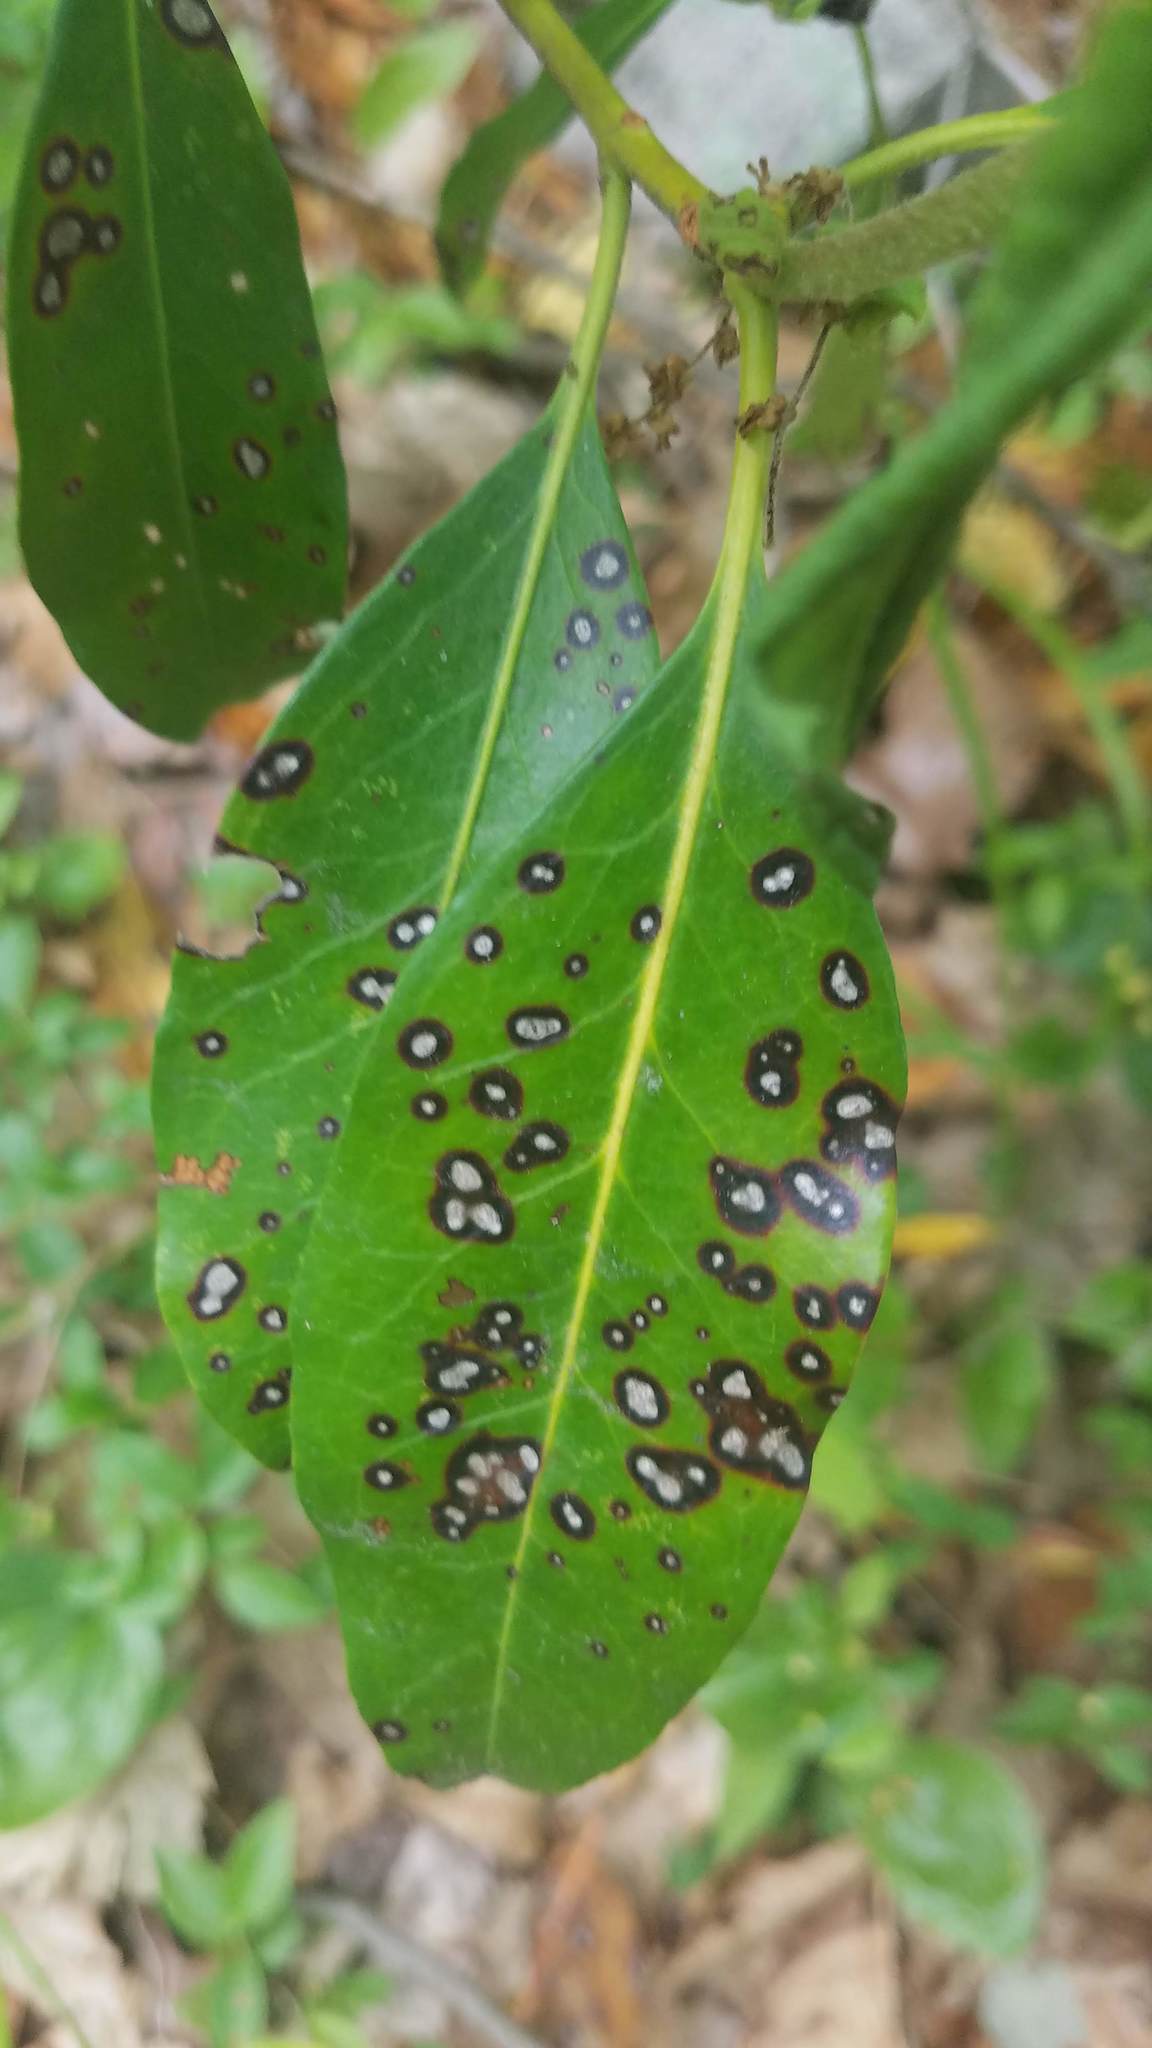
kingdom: Plantae
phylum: Tracheophyta
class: Magnoliopsida
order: Ericales
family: Ericaceae
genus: Kalmia
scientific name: Kalmia latifolia
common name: Mountain-laurel
